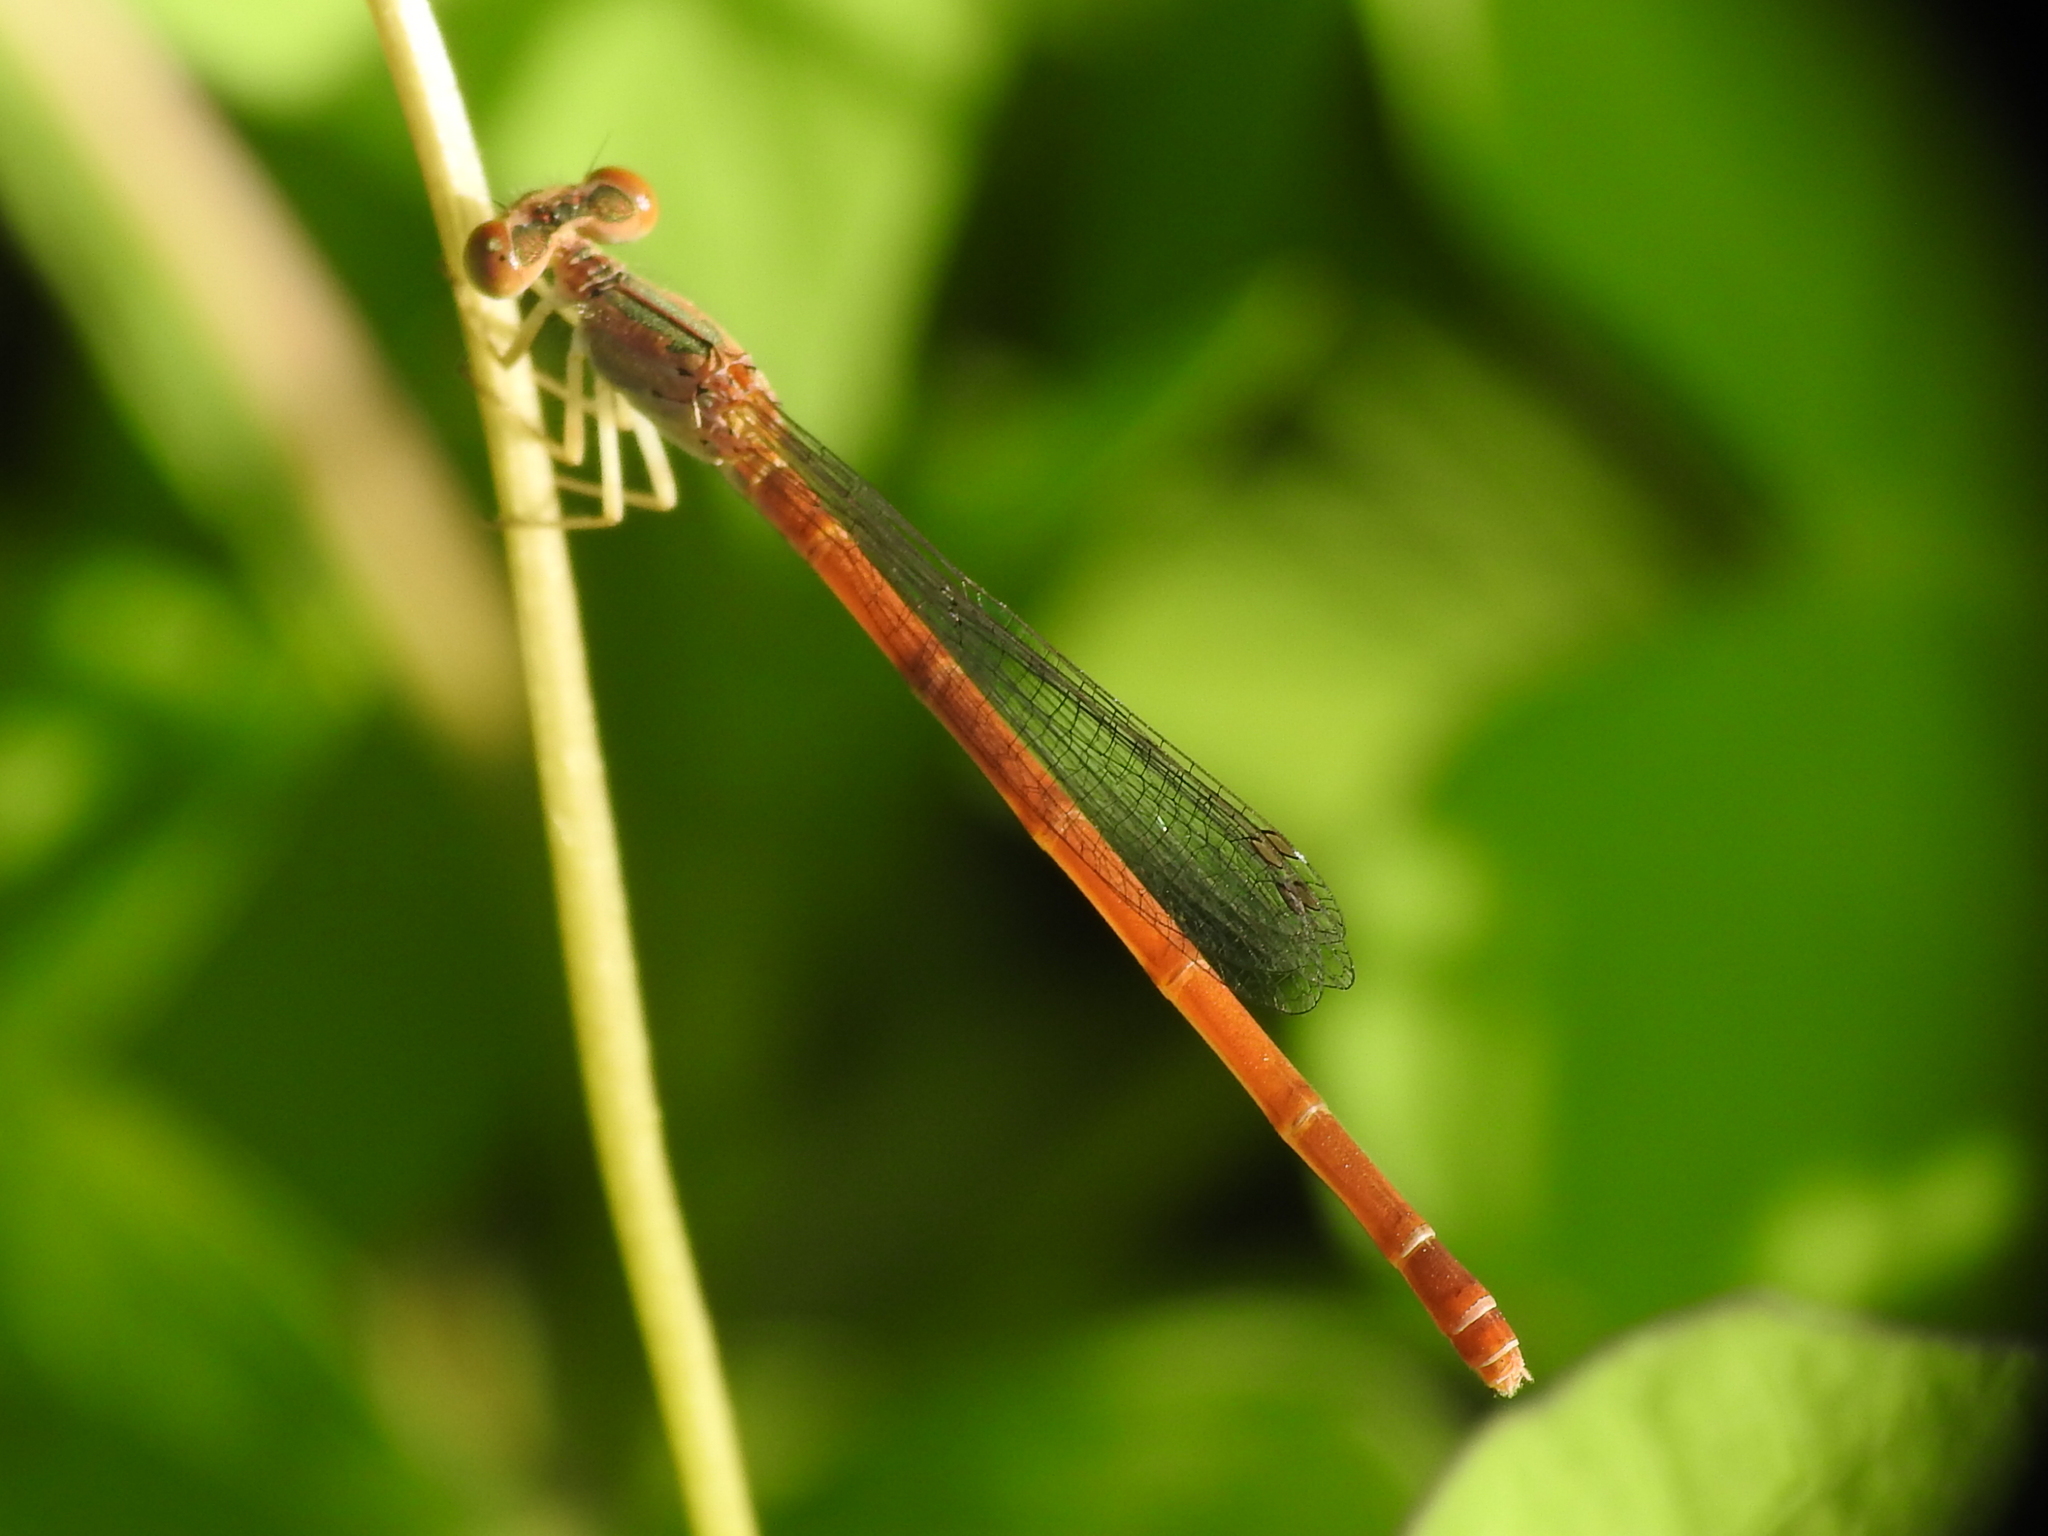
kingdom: Animalia
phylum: Arthropoda
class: Insecta
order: Odonata
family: Coenagrionidae
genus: Telebasis
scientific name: Telebasis salva
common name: Desert firetail
